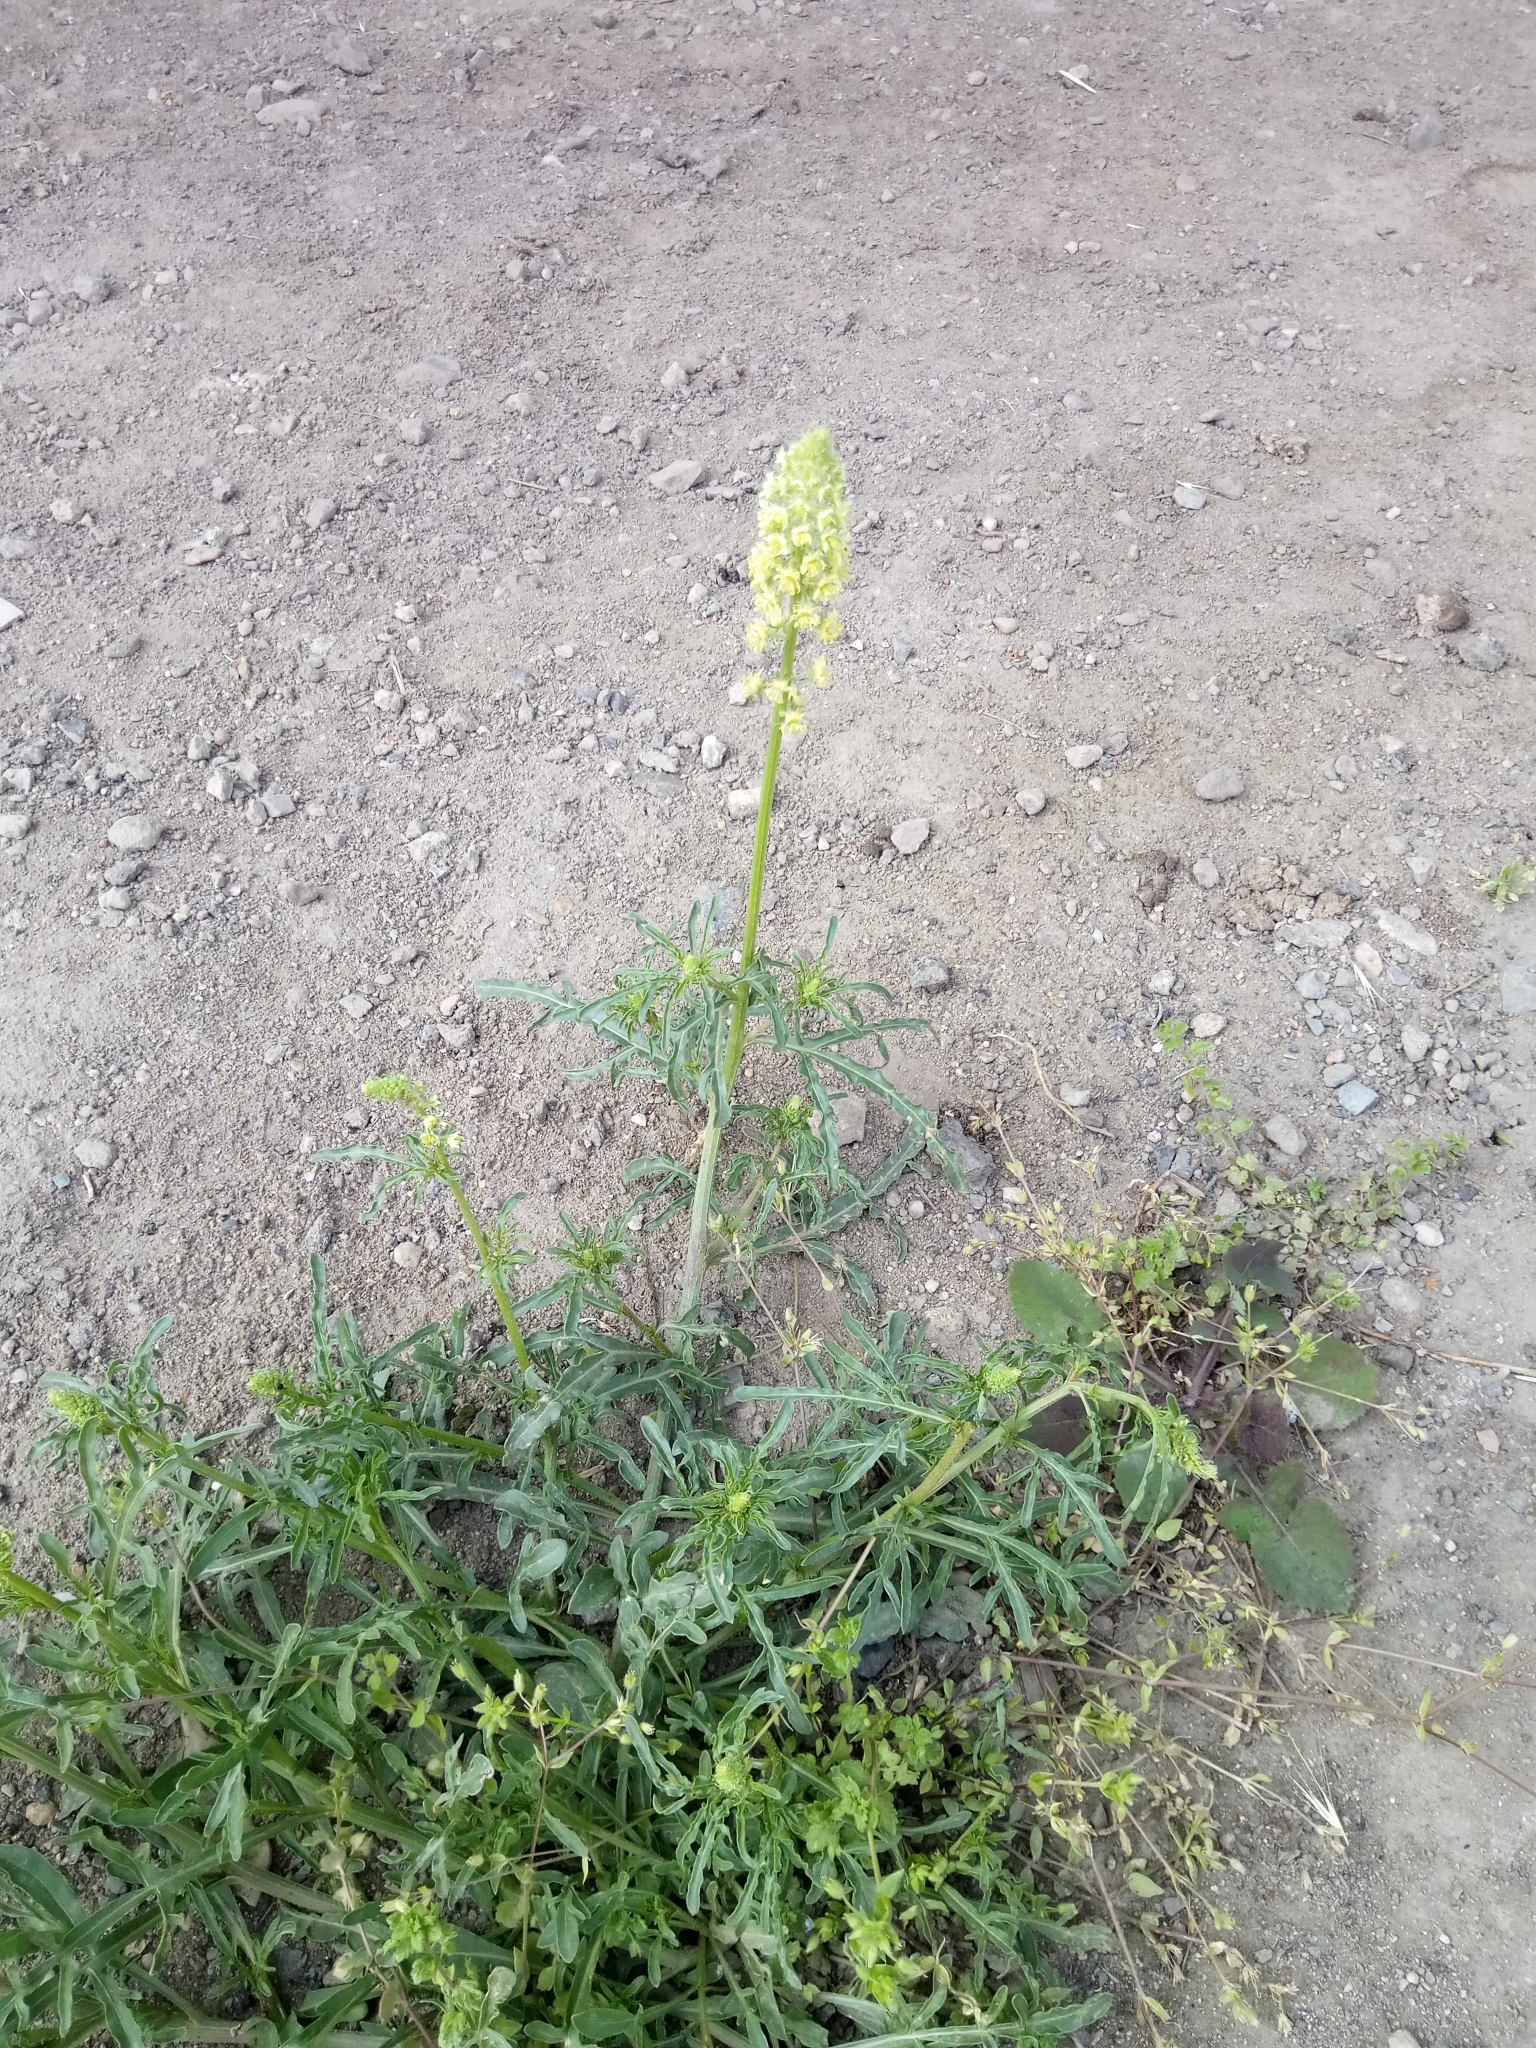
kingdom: Plantae
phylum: Tracheophyta
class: Magnoliopsida
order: Brassicales
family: Resedaceae
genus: Reseda
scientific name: Reseda lutea
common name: Wild mignonette
